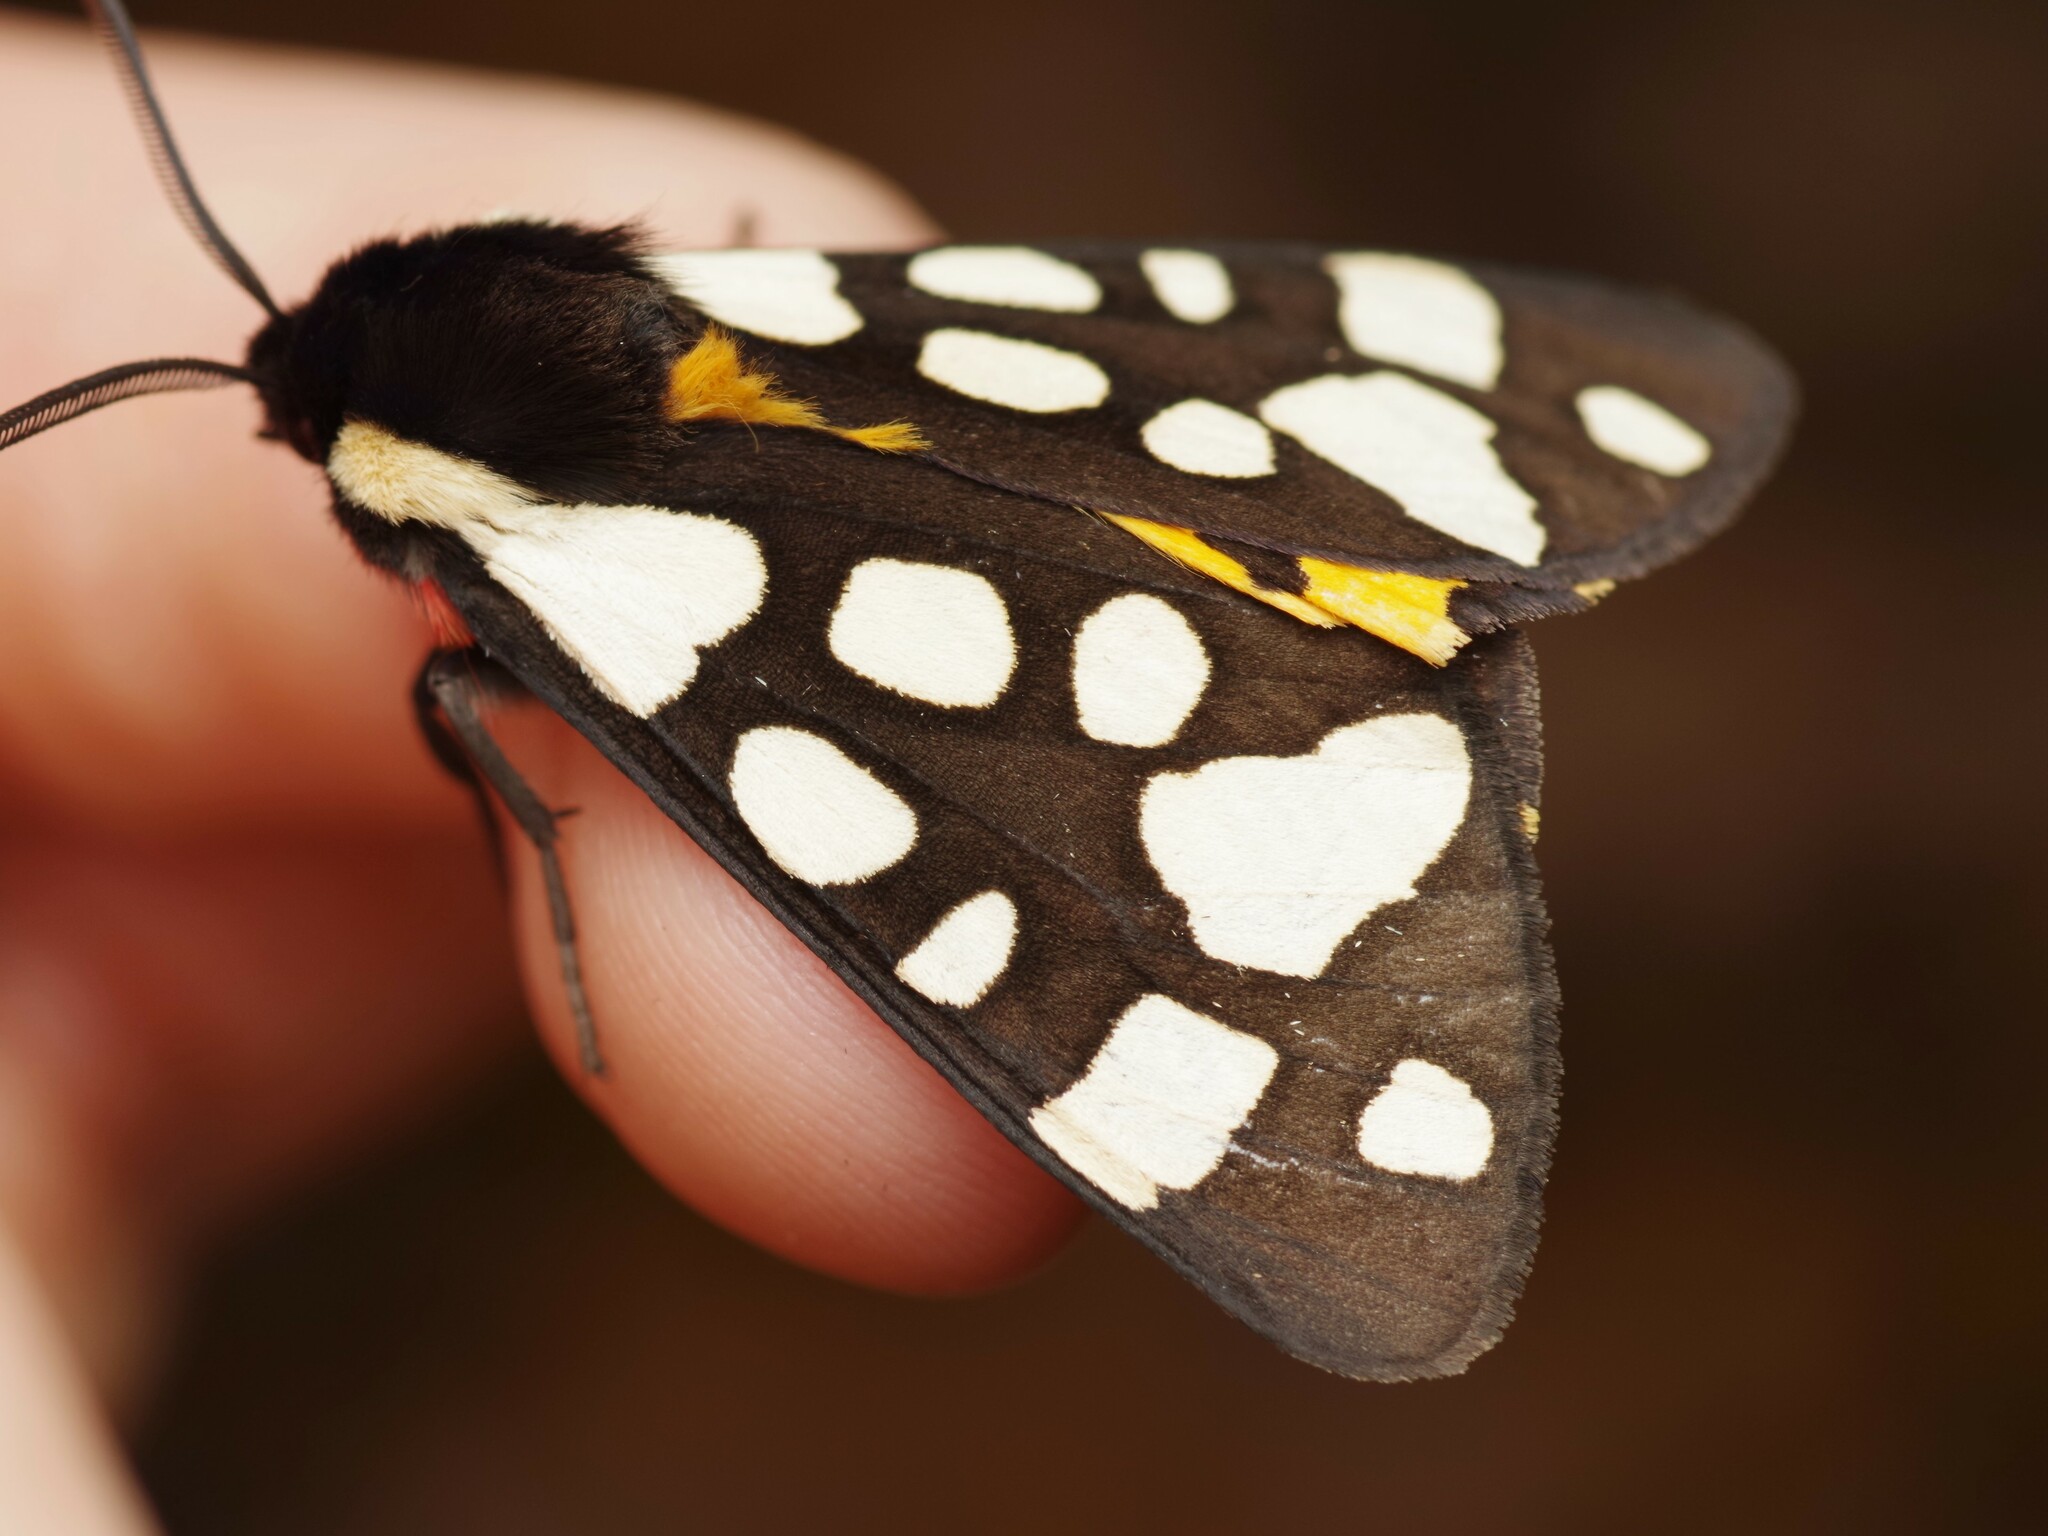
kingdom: Animalia
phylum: Arthropoda
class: Insecta
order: Lepidoptera
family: Erebidae
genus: Epicallia
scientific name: Epicallia villica
